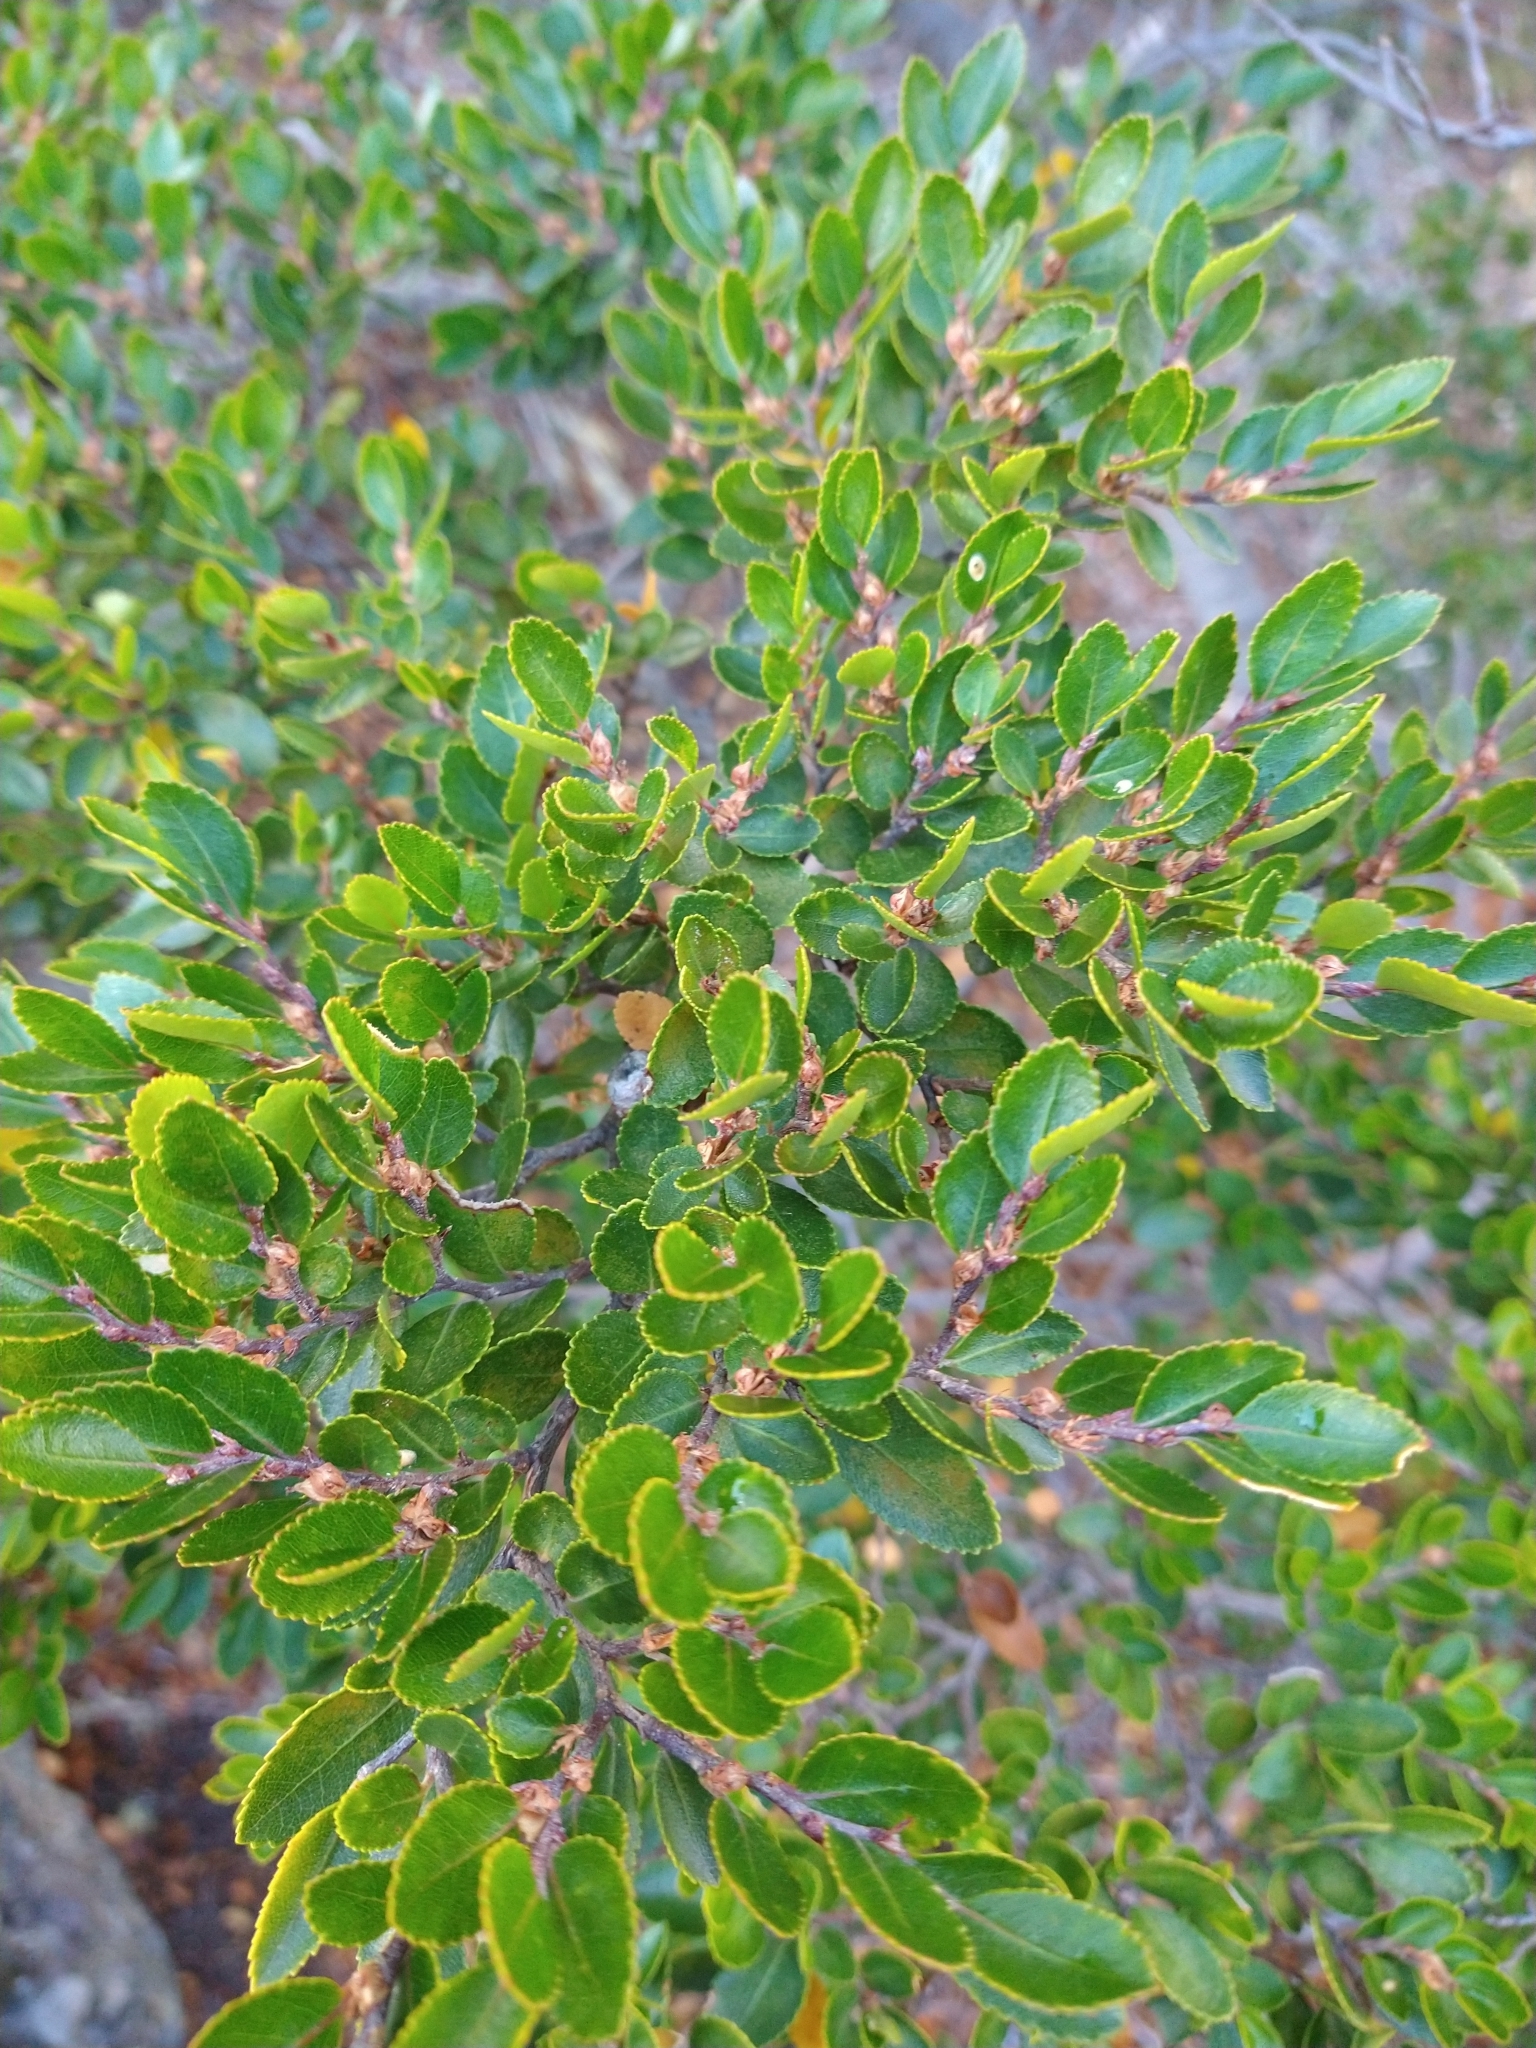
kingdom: Plantae
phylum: Tracheophyta
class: Magnoliopsida
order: Fagales
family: Nothofagaceae
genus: Nothofagus
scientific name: Nothofagus betuloides
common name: Magellan's beech
